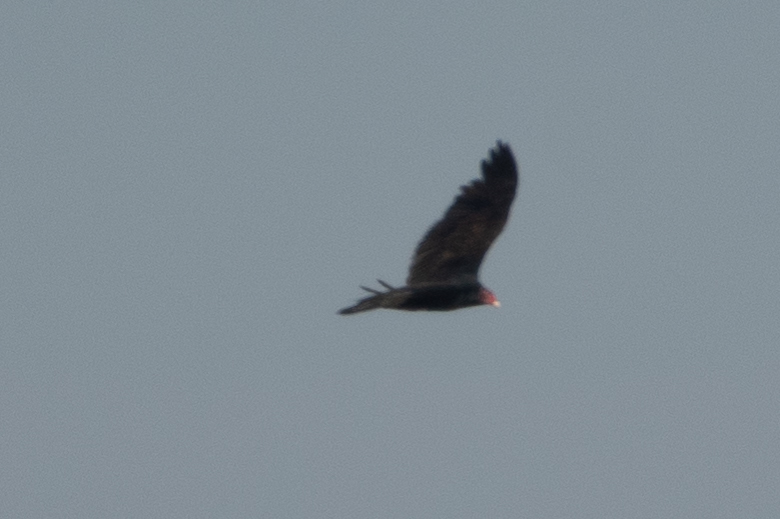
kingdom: Animalia
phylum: Chordata
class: Aves
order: Accipitriformes
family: Cathartidae
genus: Cathartes
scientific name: Cathartes aura
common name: Turkey vulture
